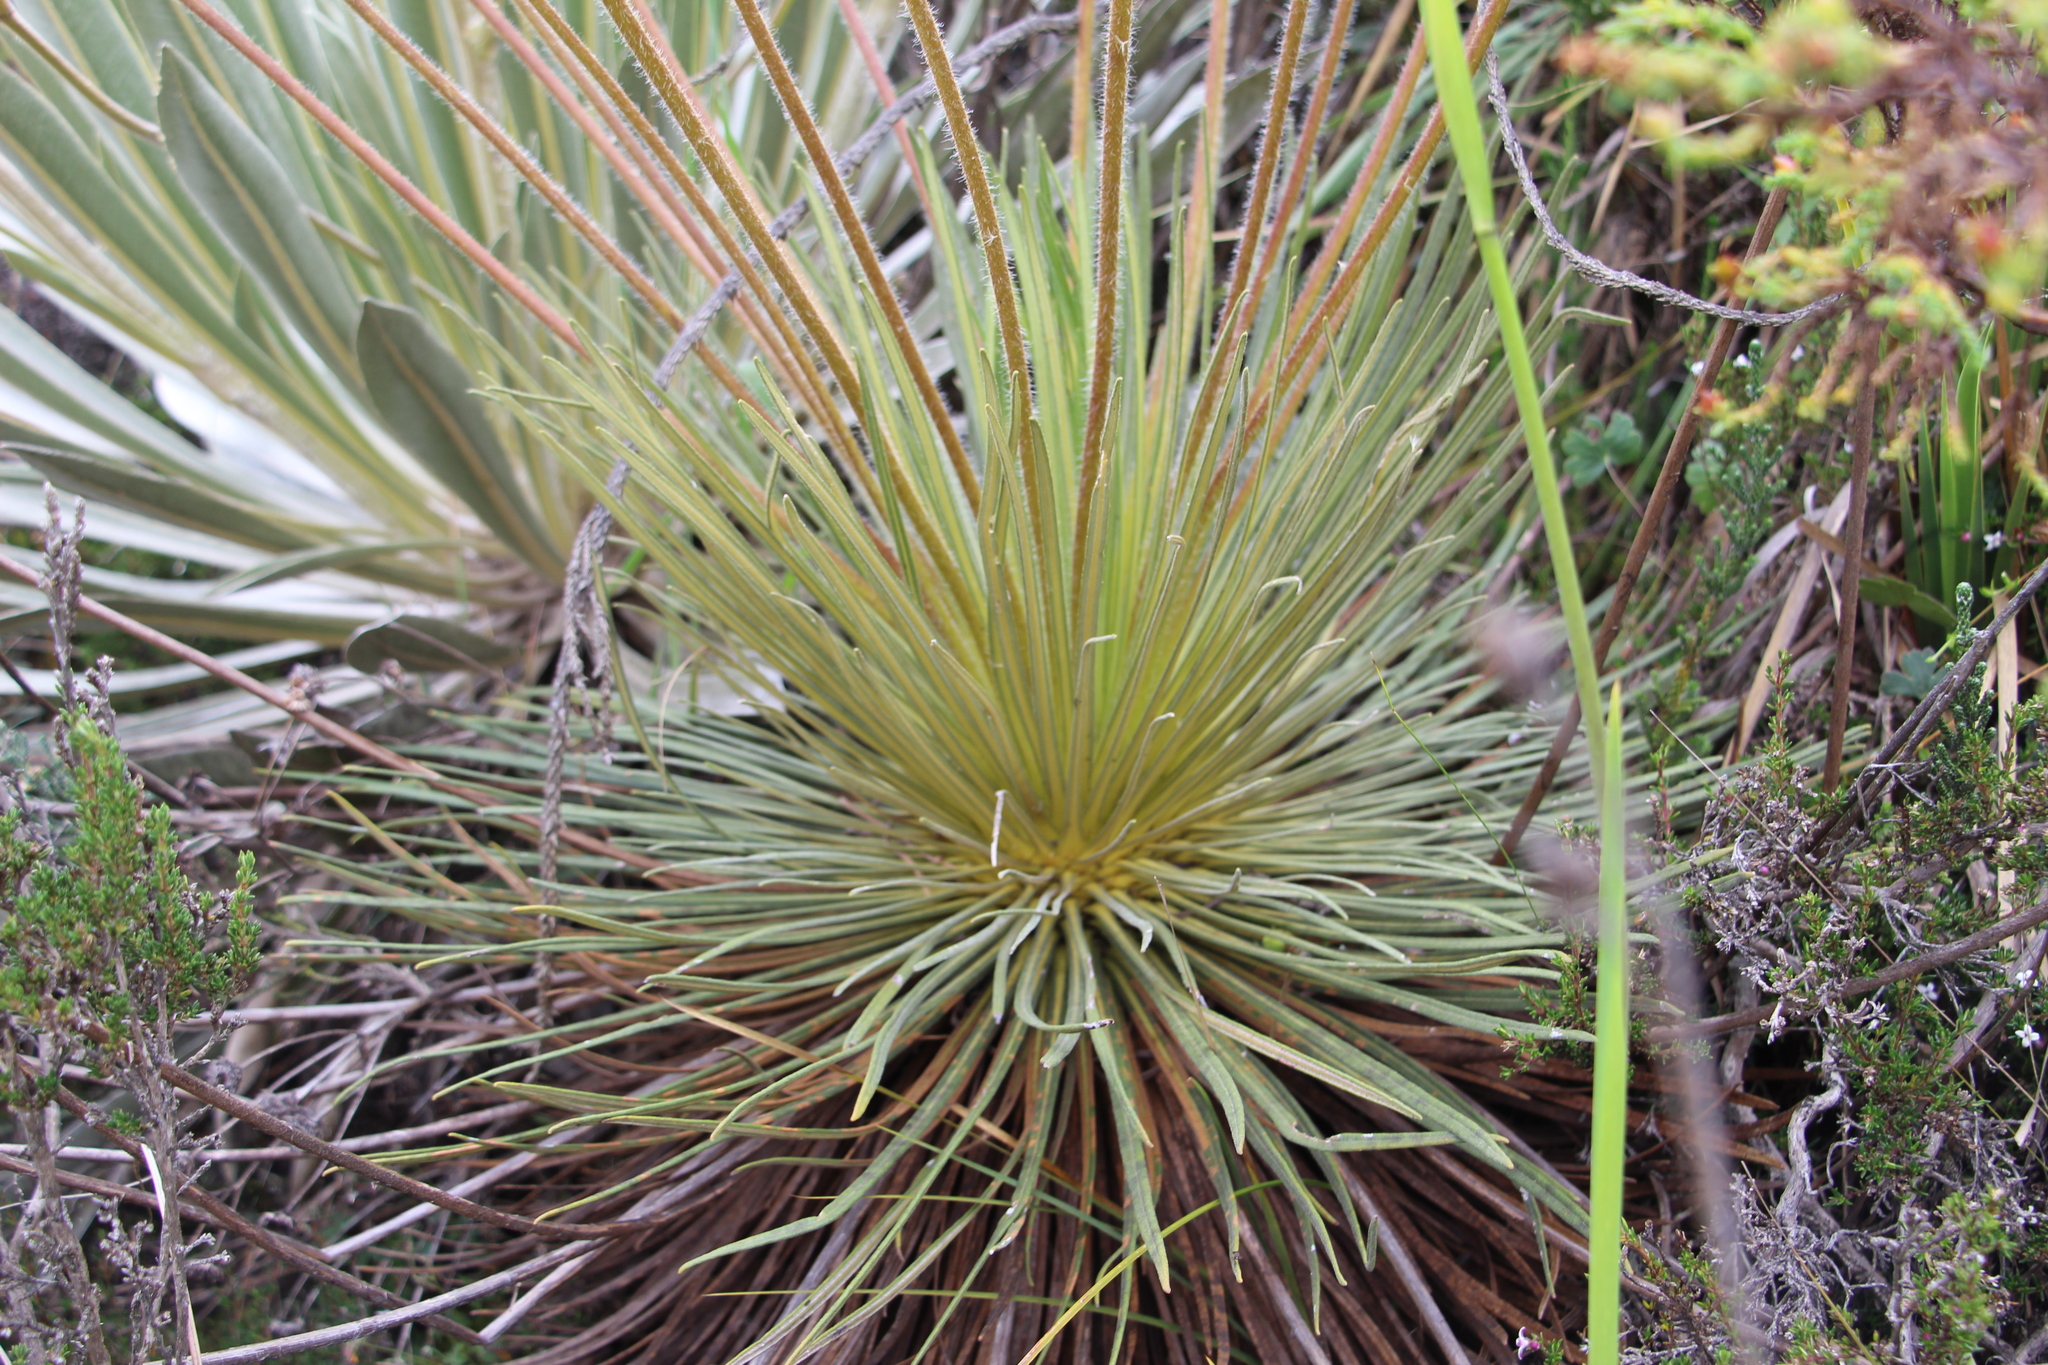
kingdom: Plantae
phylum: Tracheophyta
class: Magnoliopsida
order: Asterales
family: Asteraceae
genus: Espeletia
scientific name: Espeletia glandulosa
